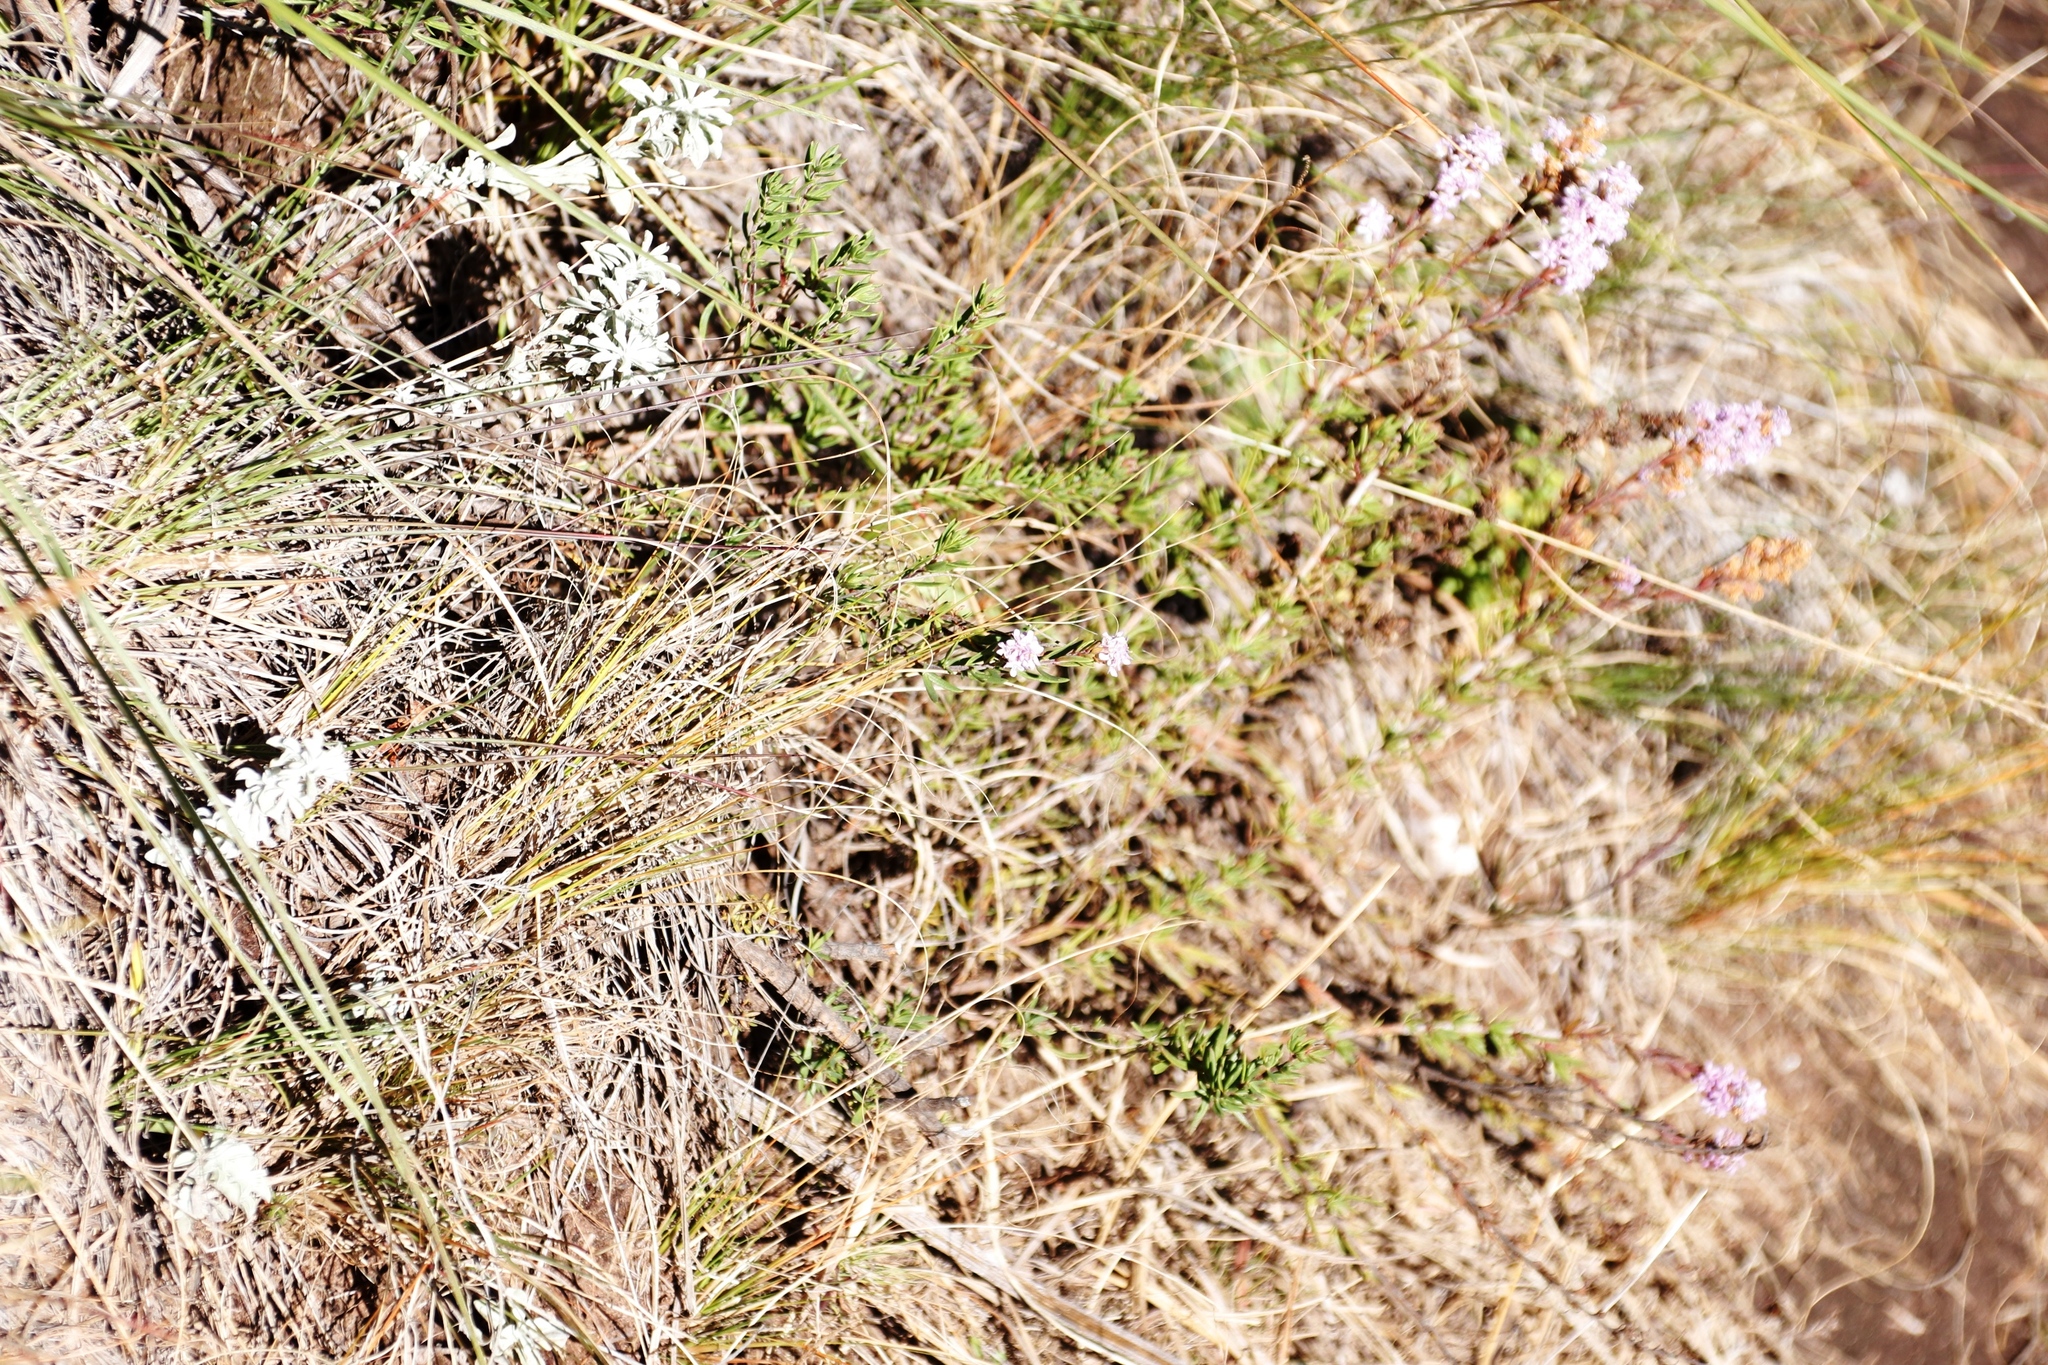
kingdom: Plantae
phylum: Tracheophyta
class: Magnoliopsida
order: Lamiales
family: Scrophulariaceae
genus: Selago
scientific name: Selago flanaganii
